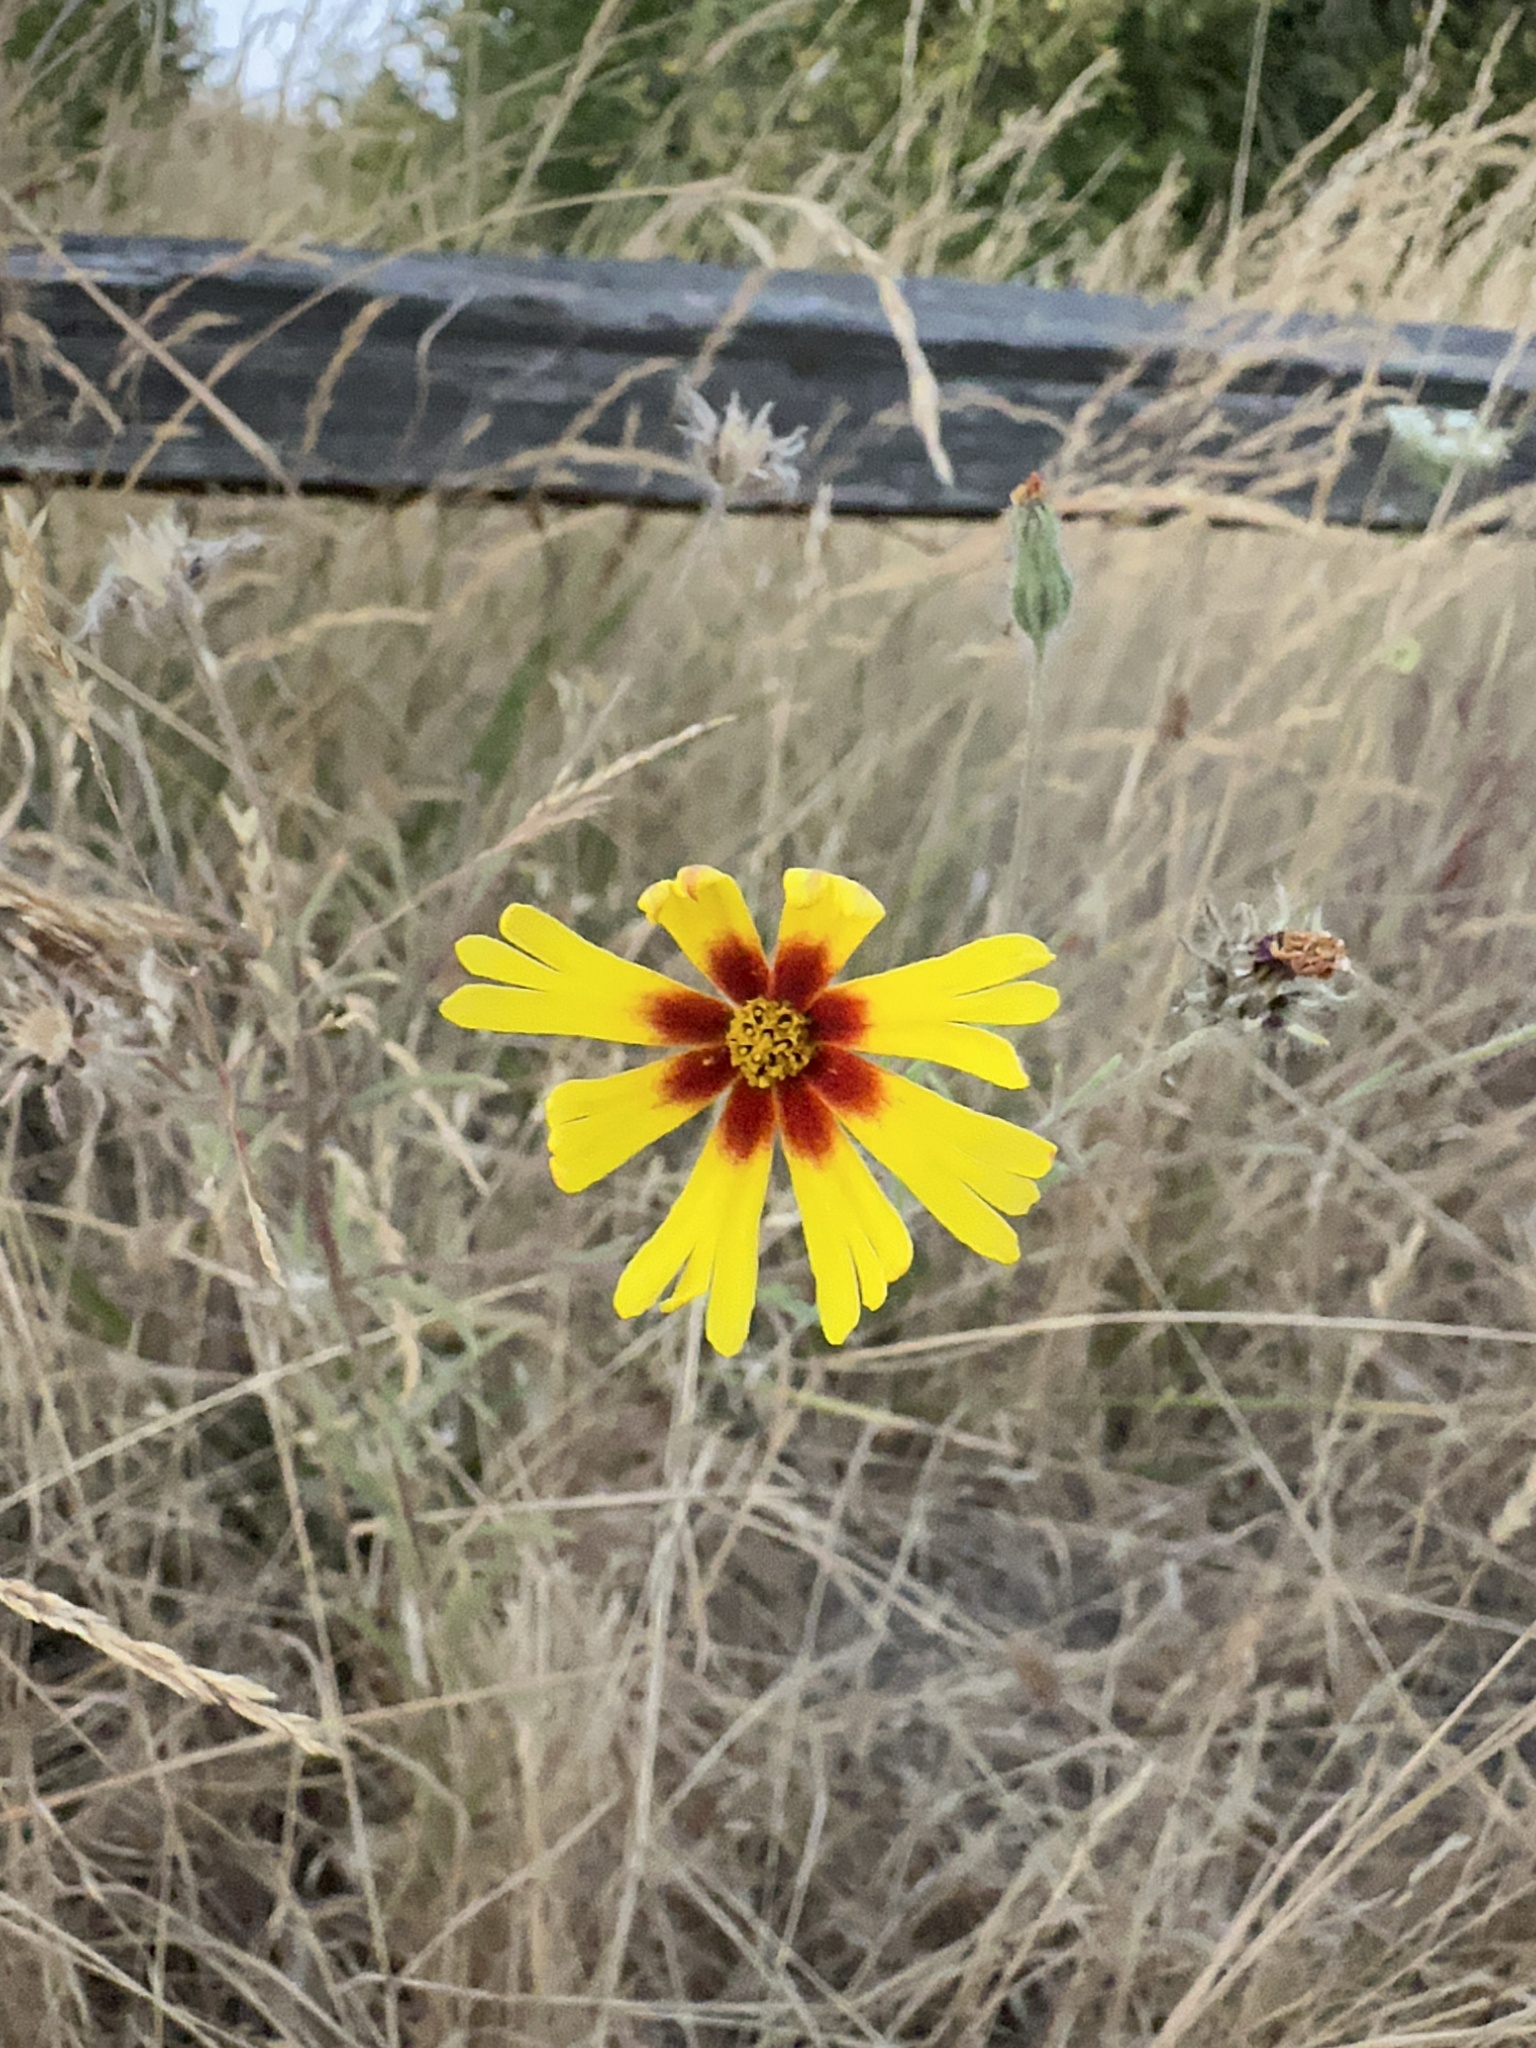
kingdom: Plantae
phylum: Tracheophyta
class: Magnoliopsida
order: Asterales
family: Asteraceae
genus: Madia
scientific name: Madia elegans
